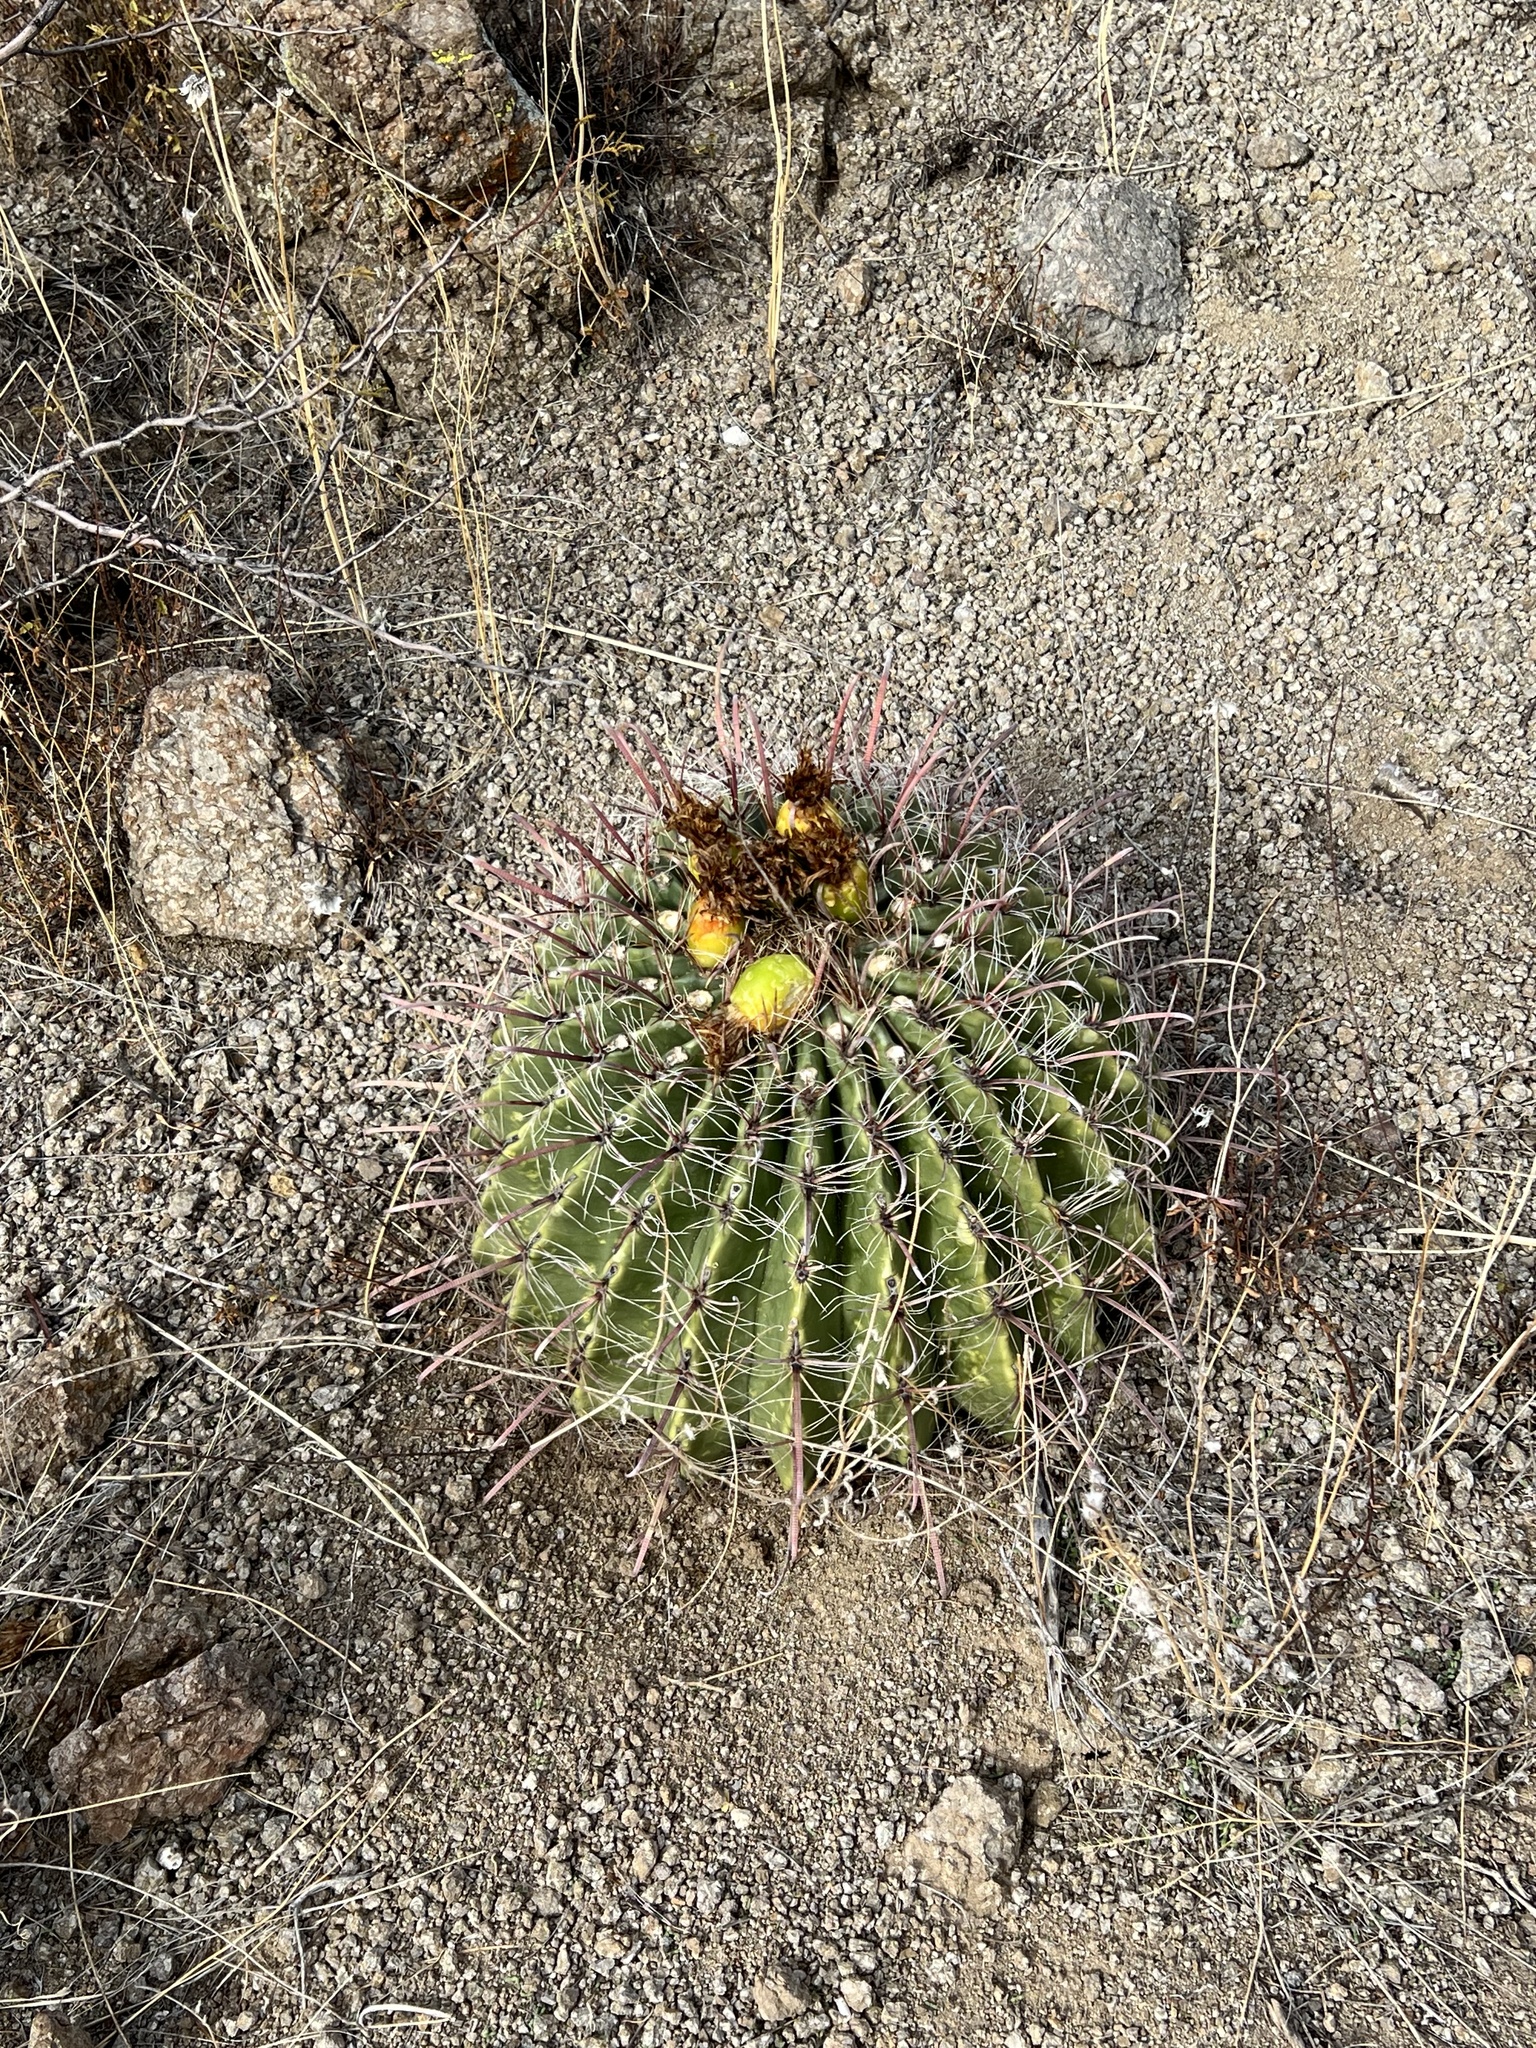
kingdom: Plantae
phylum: Tracheophyta
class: Magnoliopsida
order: Caryophyllales
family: Cactaceae
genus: Ferocactus
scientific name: Ferocactus wislizeni
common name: Candy barrel cactus
